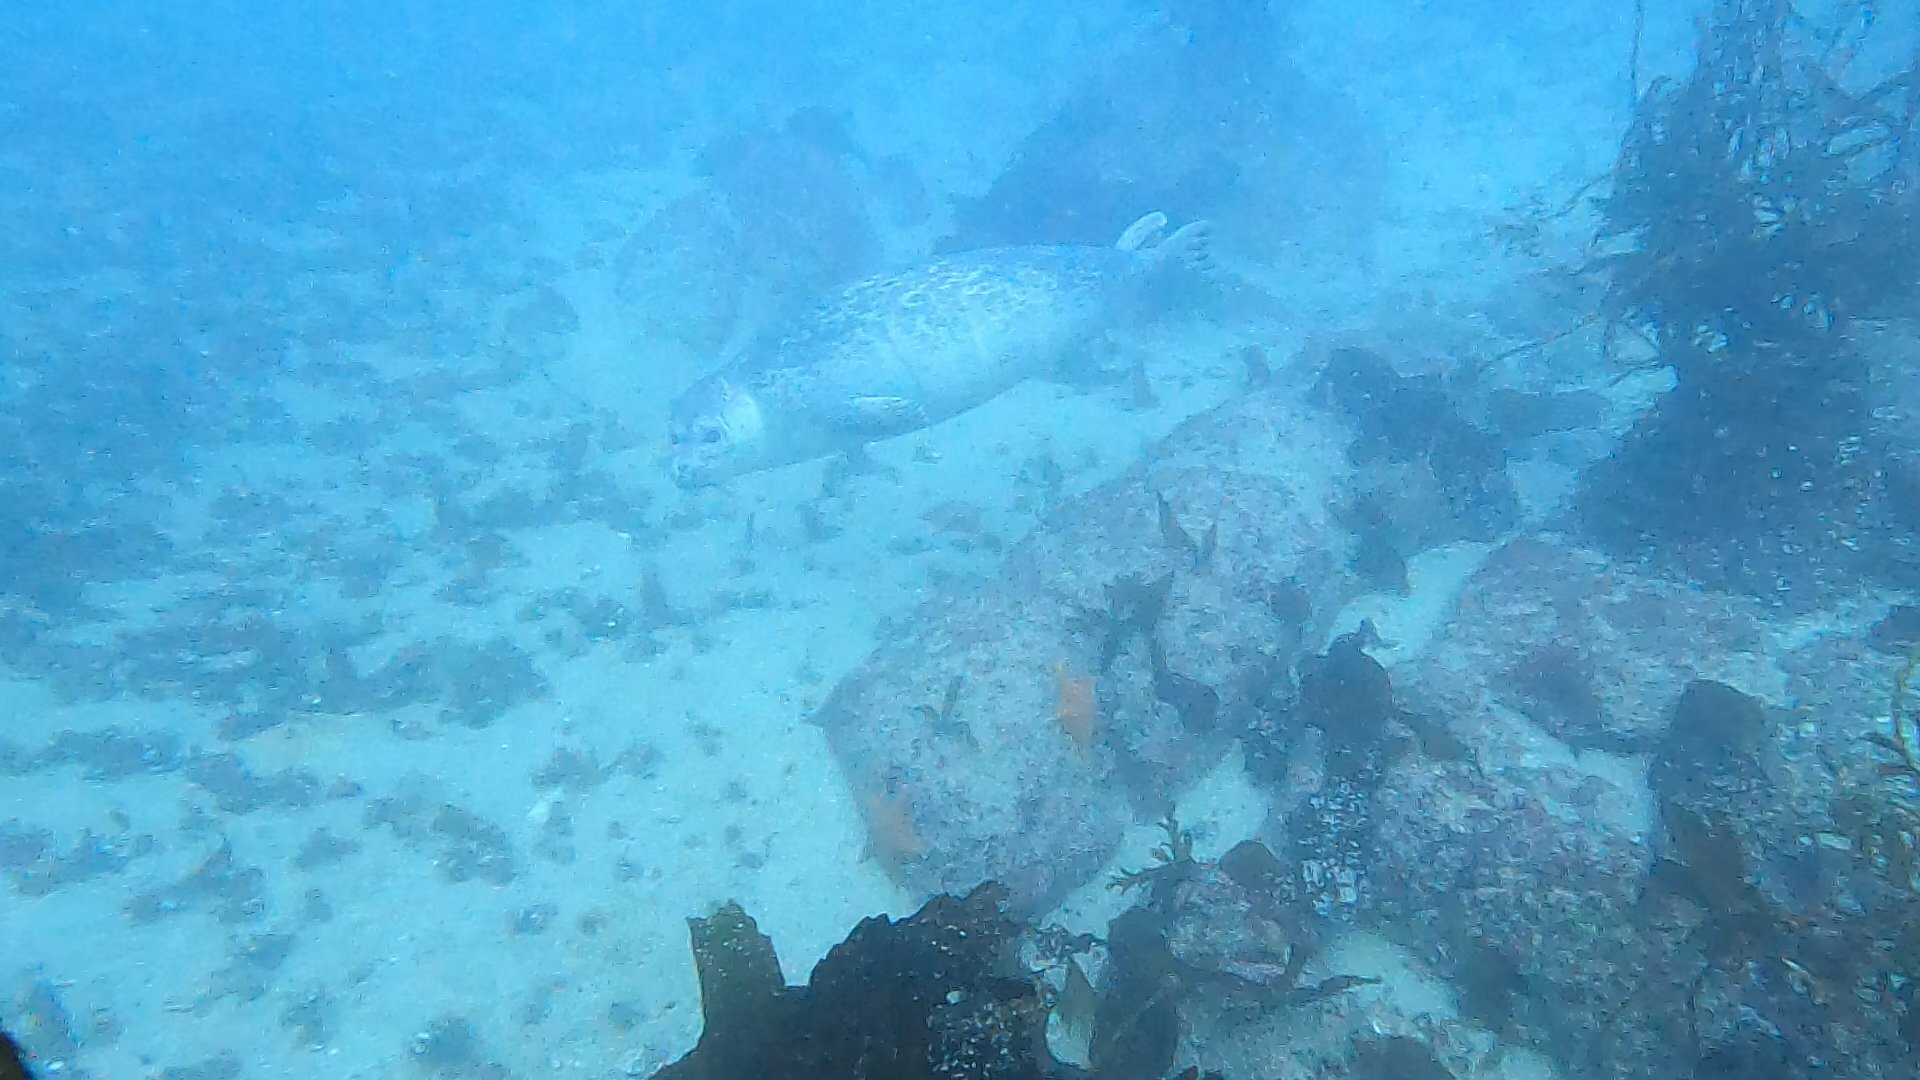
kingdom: Animalia
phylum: Chordata
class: Mammalia
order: Carnivora
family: Phocidae
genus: Phoca
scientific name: Phoca vitulina
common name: Harbor seal
